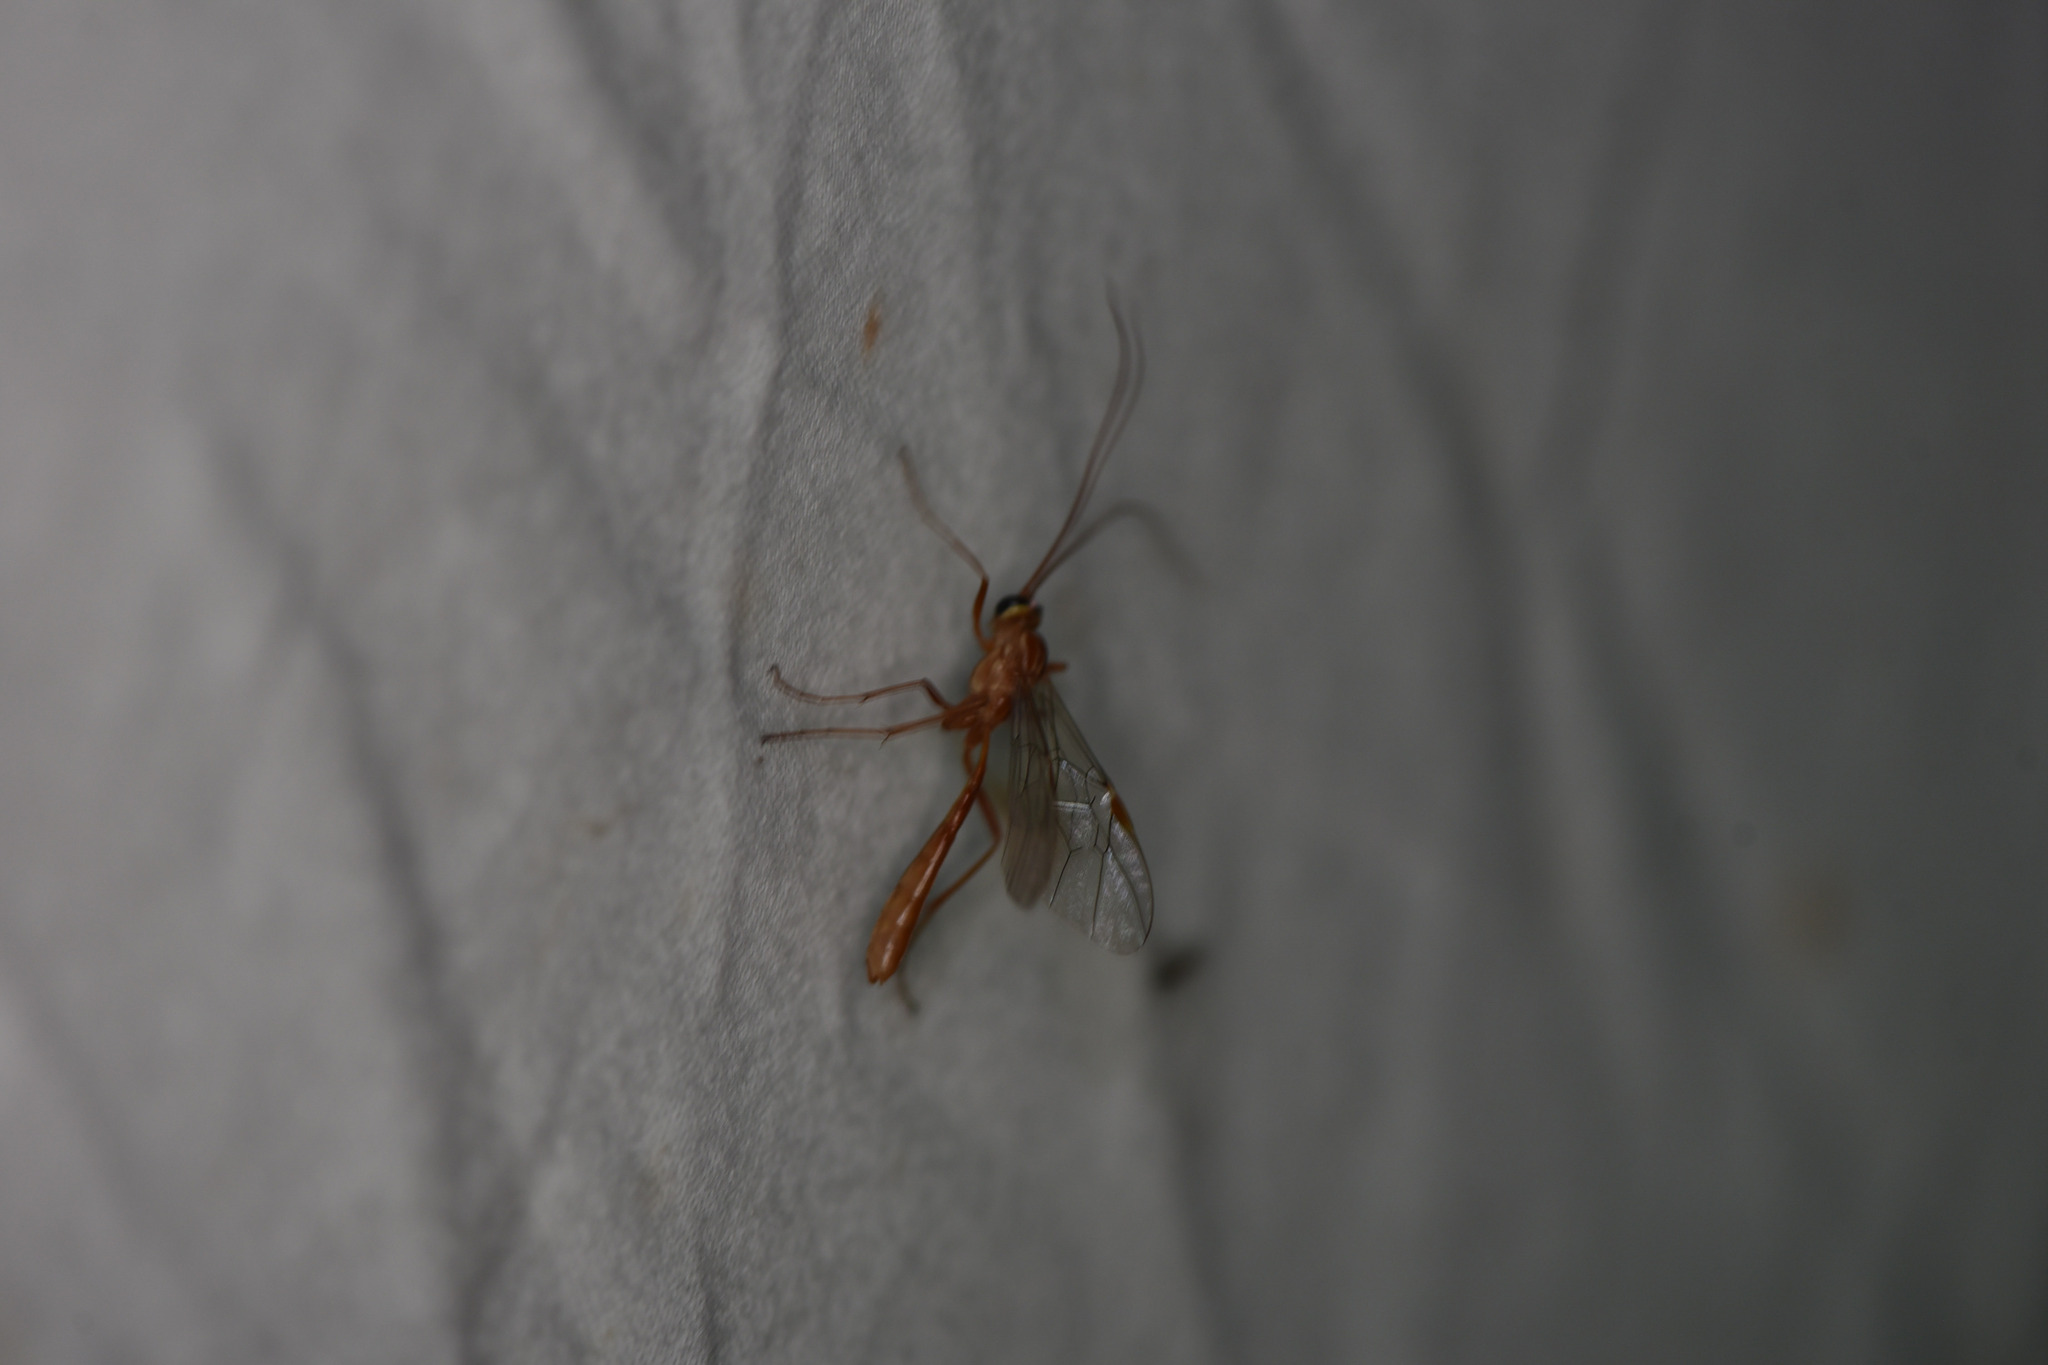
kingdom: Animalia
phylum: Arthropoda
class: Insecta
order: Hymenoptera
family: Ichneumonidae
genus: Ophion
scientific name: Ophion
